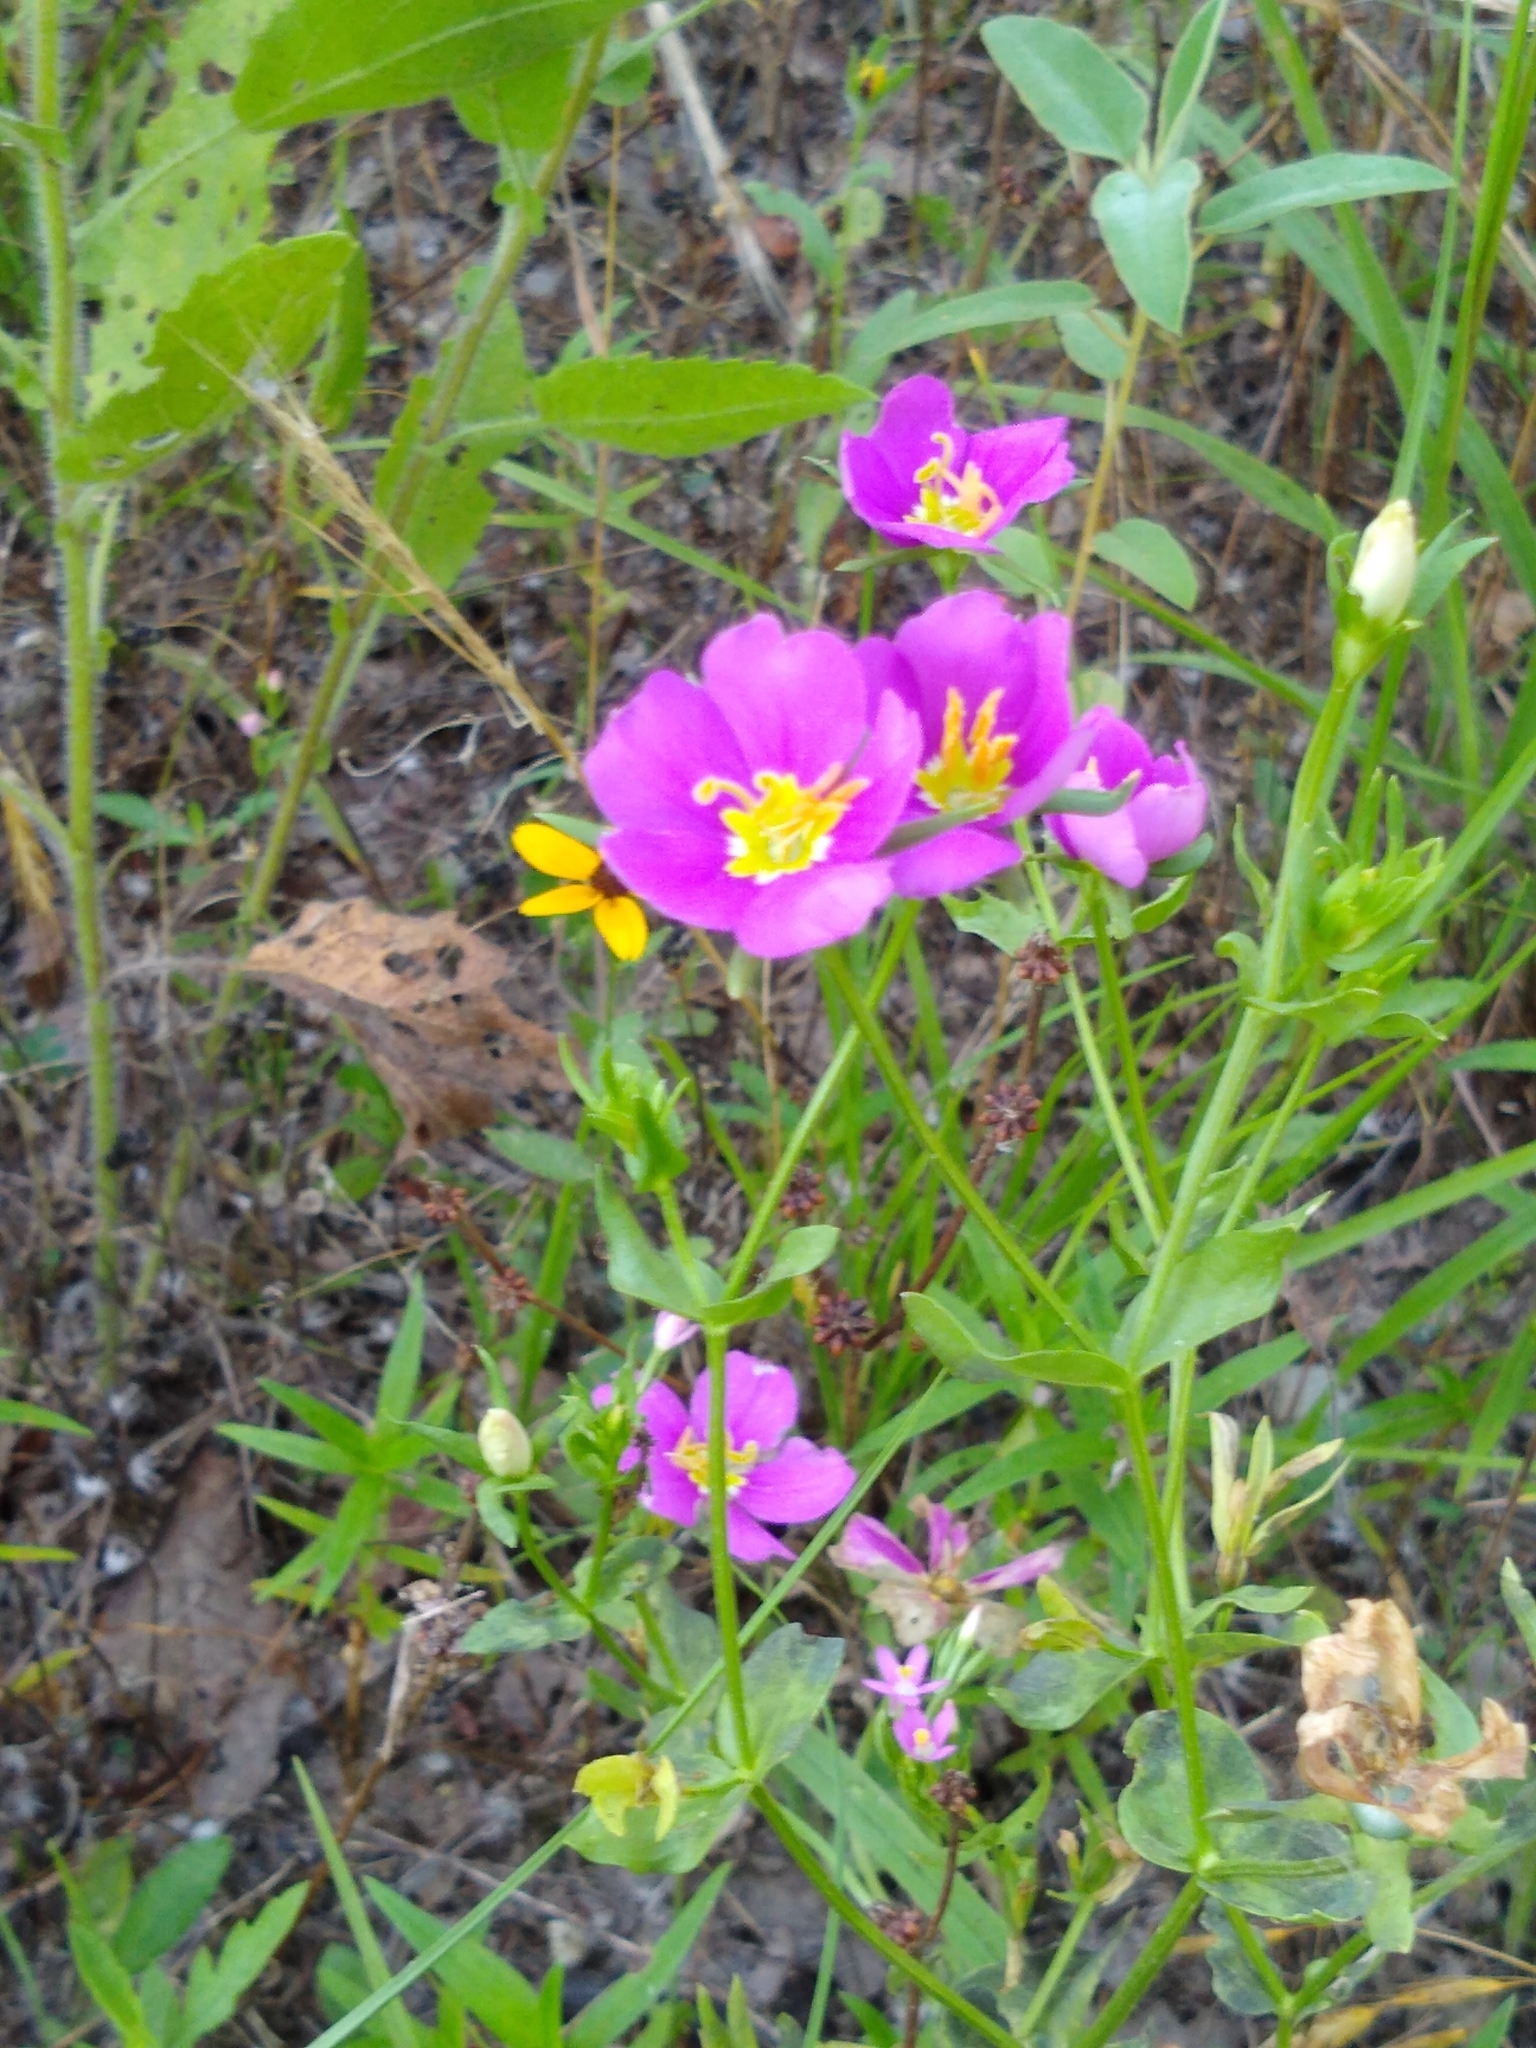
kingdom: Plantae
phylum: Tracheophyta
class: Magnoliopsida
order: Gentianales
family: Gentianaceae
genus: Sabatia
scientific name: Sabatia campestris
